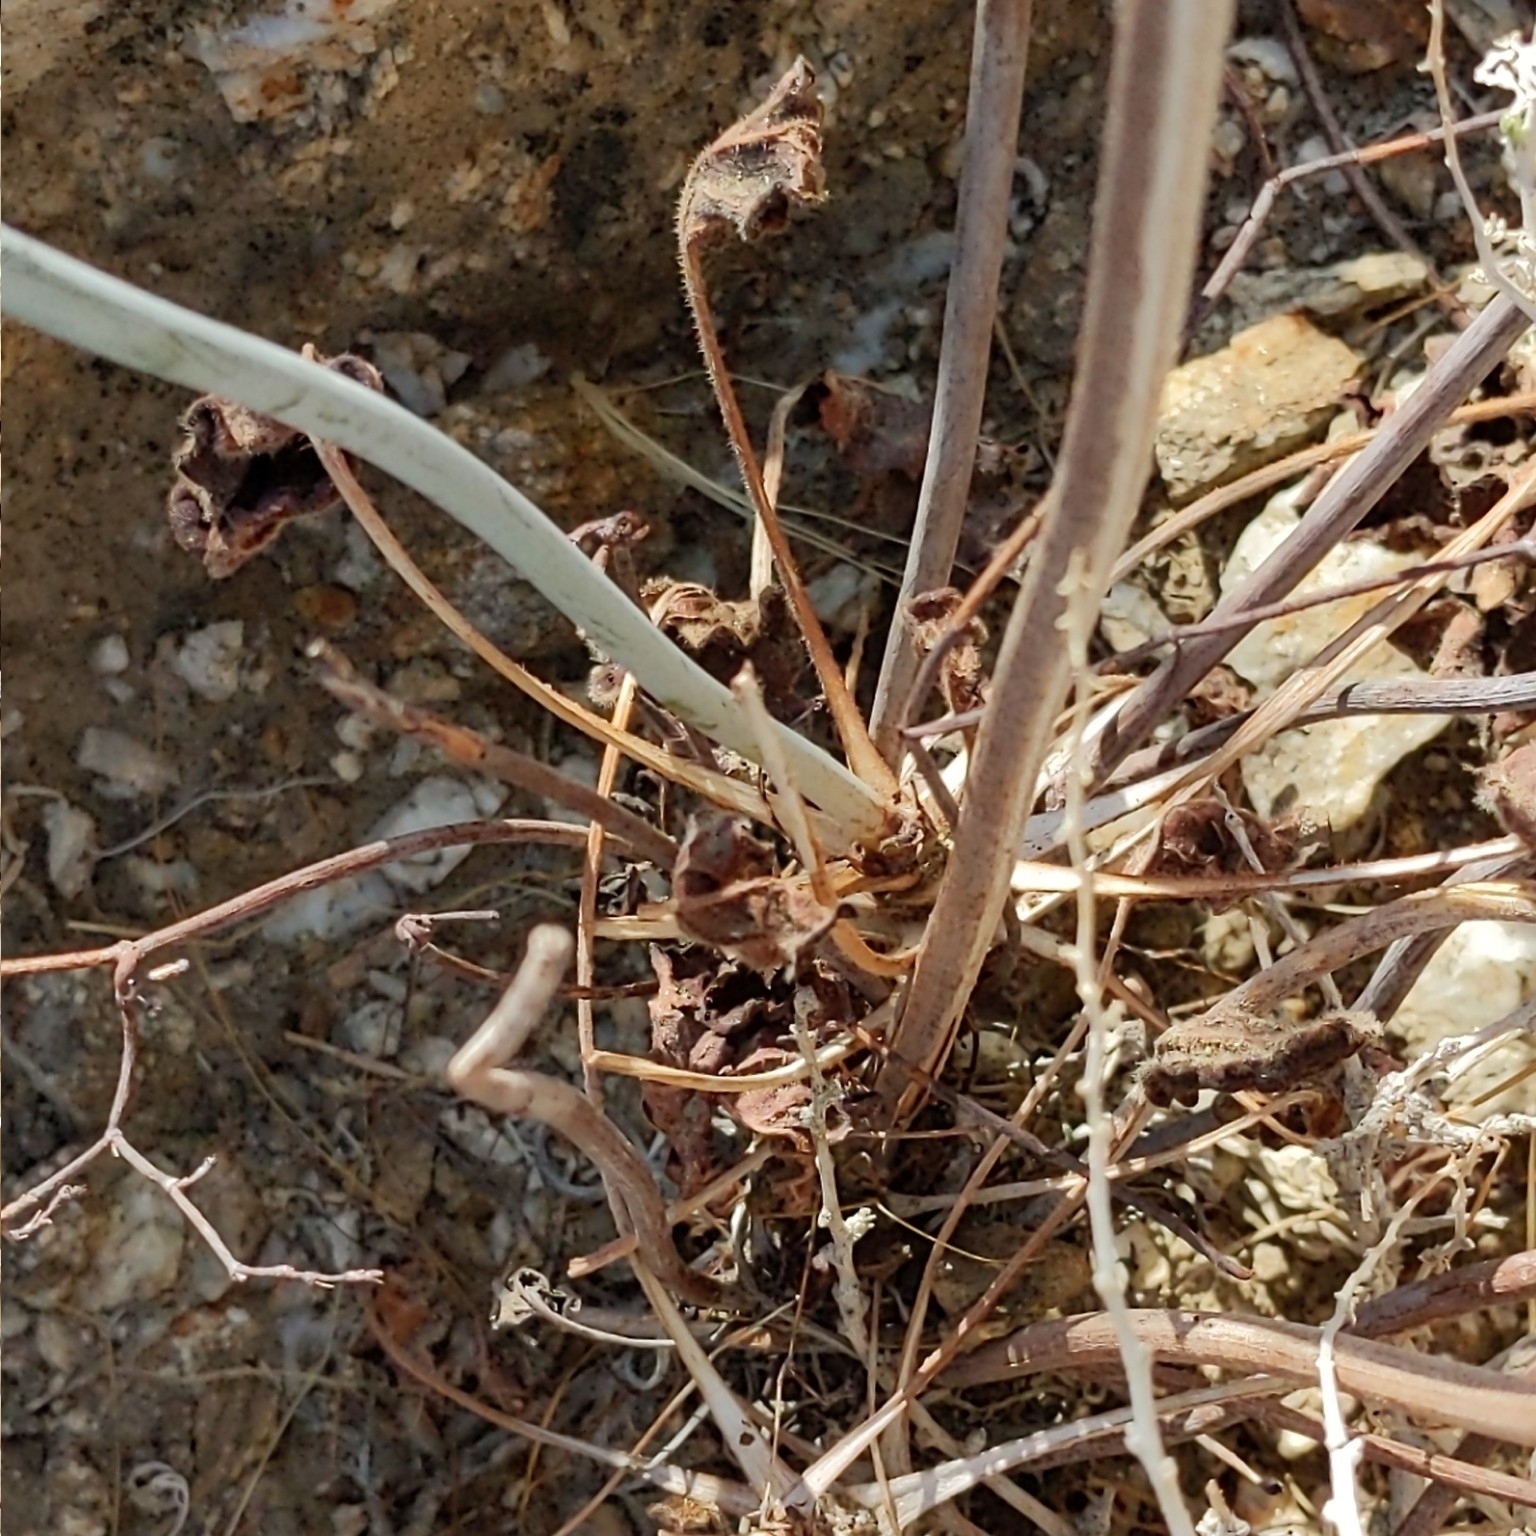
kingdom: Plantae
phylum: Tracheophyta
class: Magnoliopsida
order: Caryophyllales
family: Polygonaceae
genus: Eriogonum
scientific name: Eriogonum inflatum
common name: Desert trumpet
